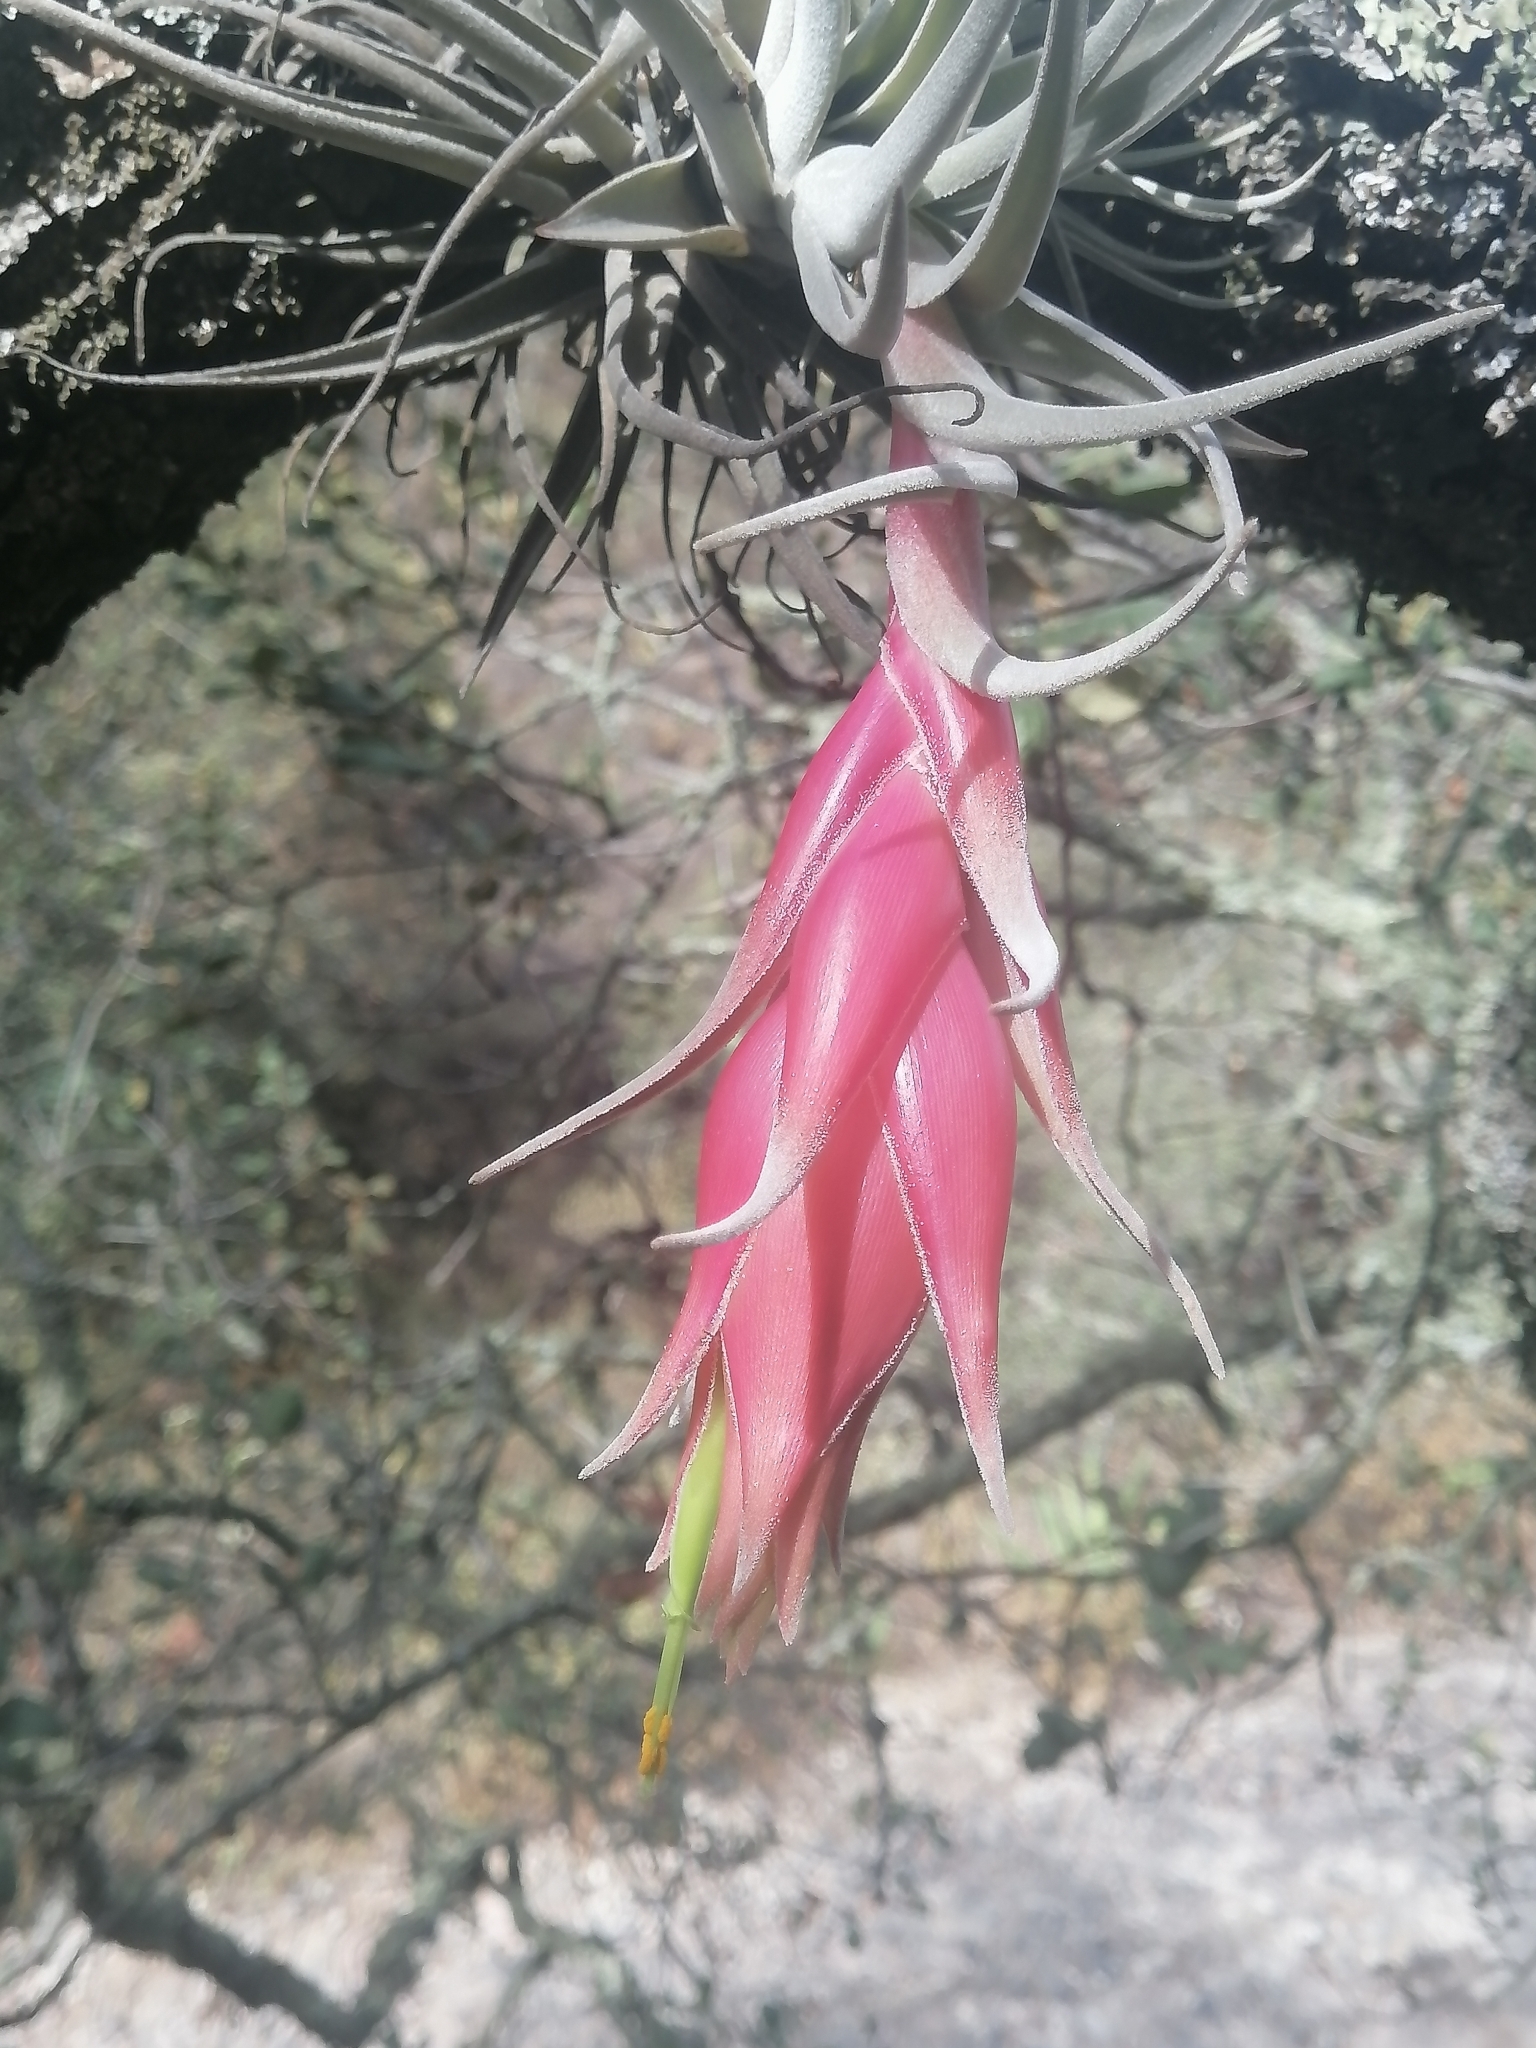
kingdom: Plantae
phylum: Tracheophyta
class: Liliopsida
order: Poales
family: Bromeliaceae
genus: Tillandsia
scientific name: Tillandsia erubescens
